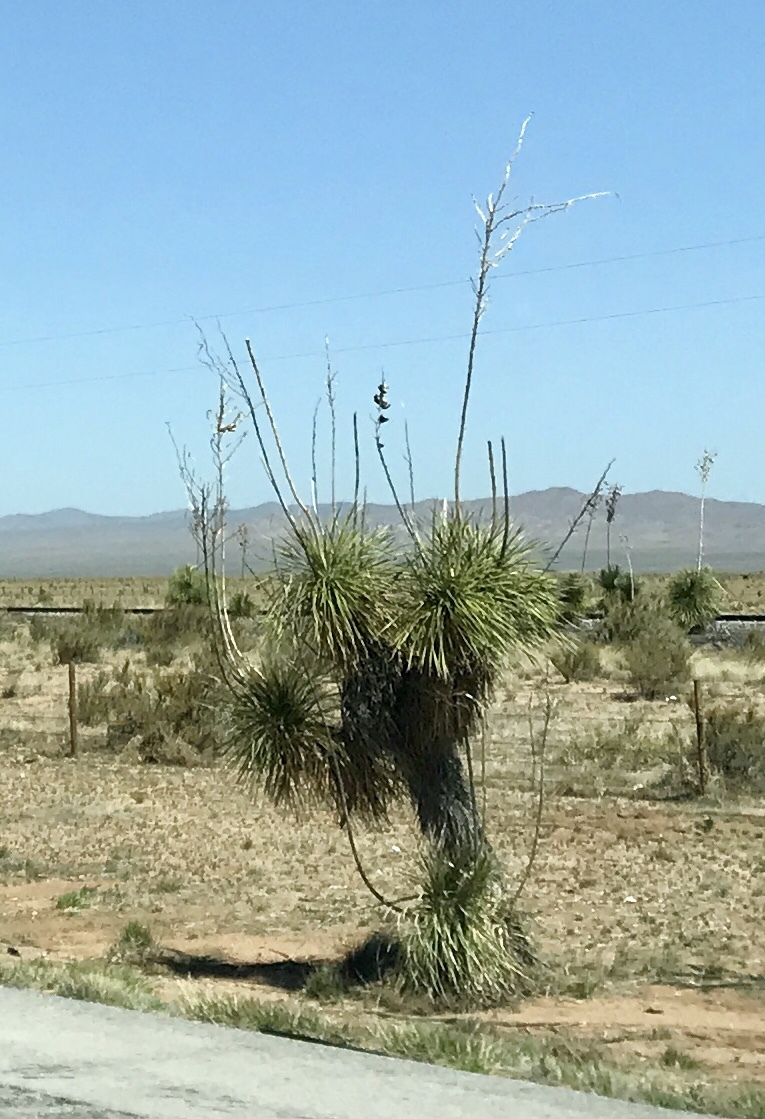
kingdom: Plantae
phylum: Tracheophyta
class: Liliopsida
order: Asparagales
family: Asparagaceae
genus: Yucca
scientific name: Yucca elata
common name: Palmella
